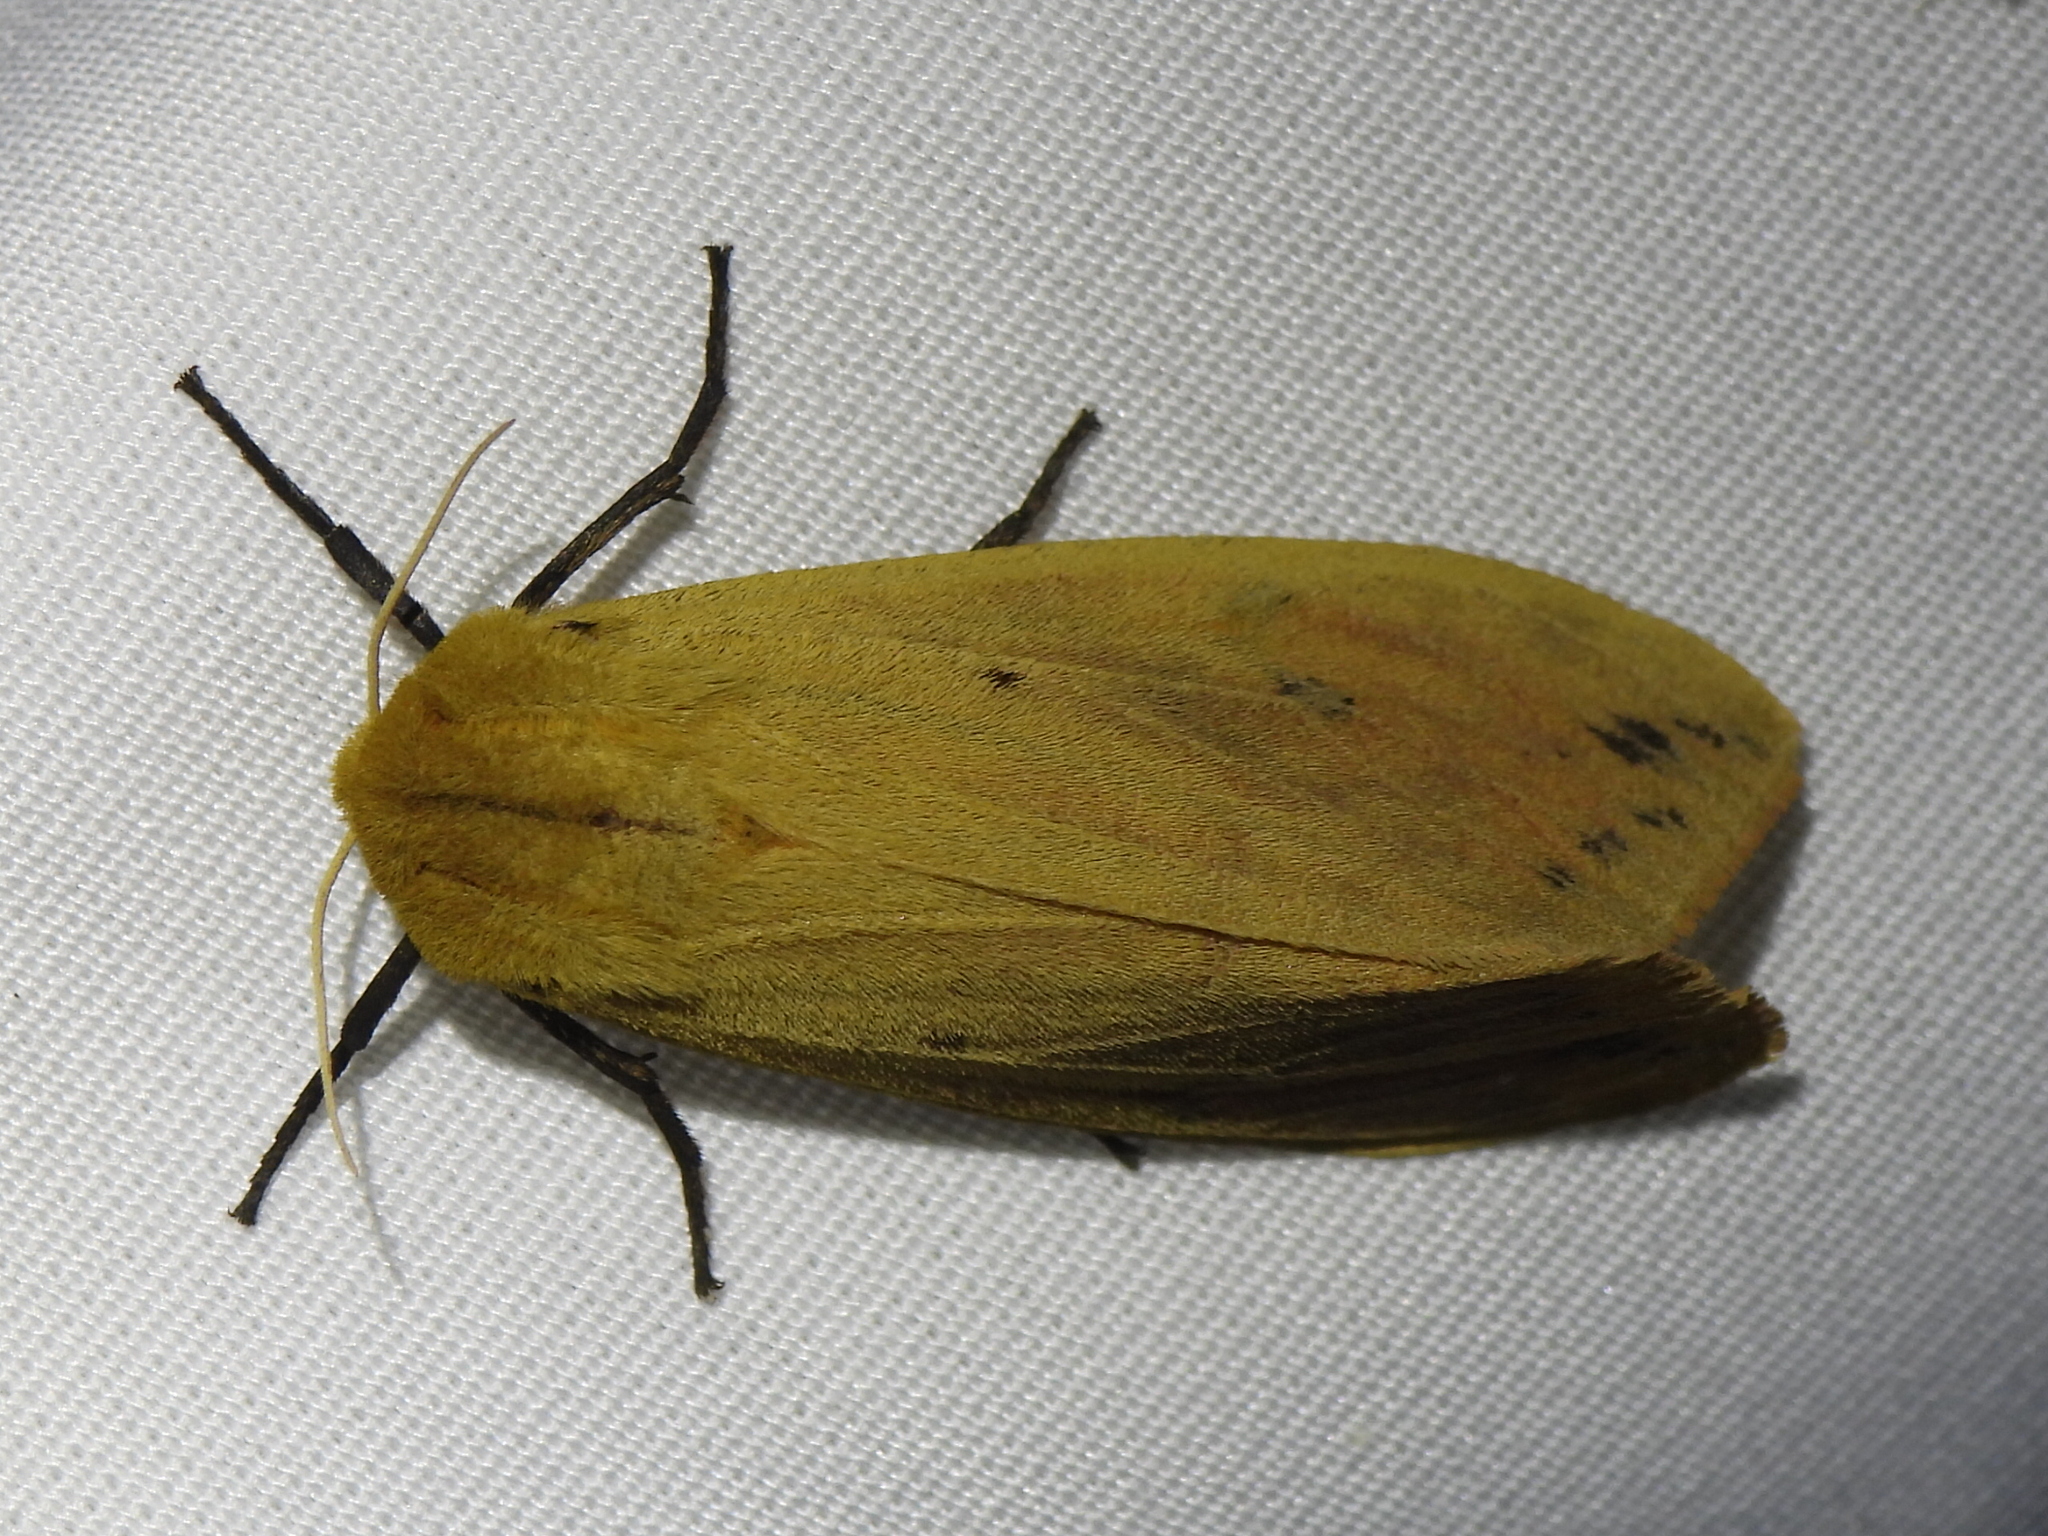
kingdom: Animalia
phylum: Arthropoda
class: Insecta
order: Lepidoptera
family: Erebidae
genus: Pyrrharctia
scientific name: Pyrrharctia isabella
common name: Isabella tiger moth
